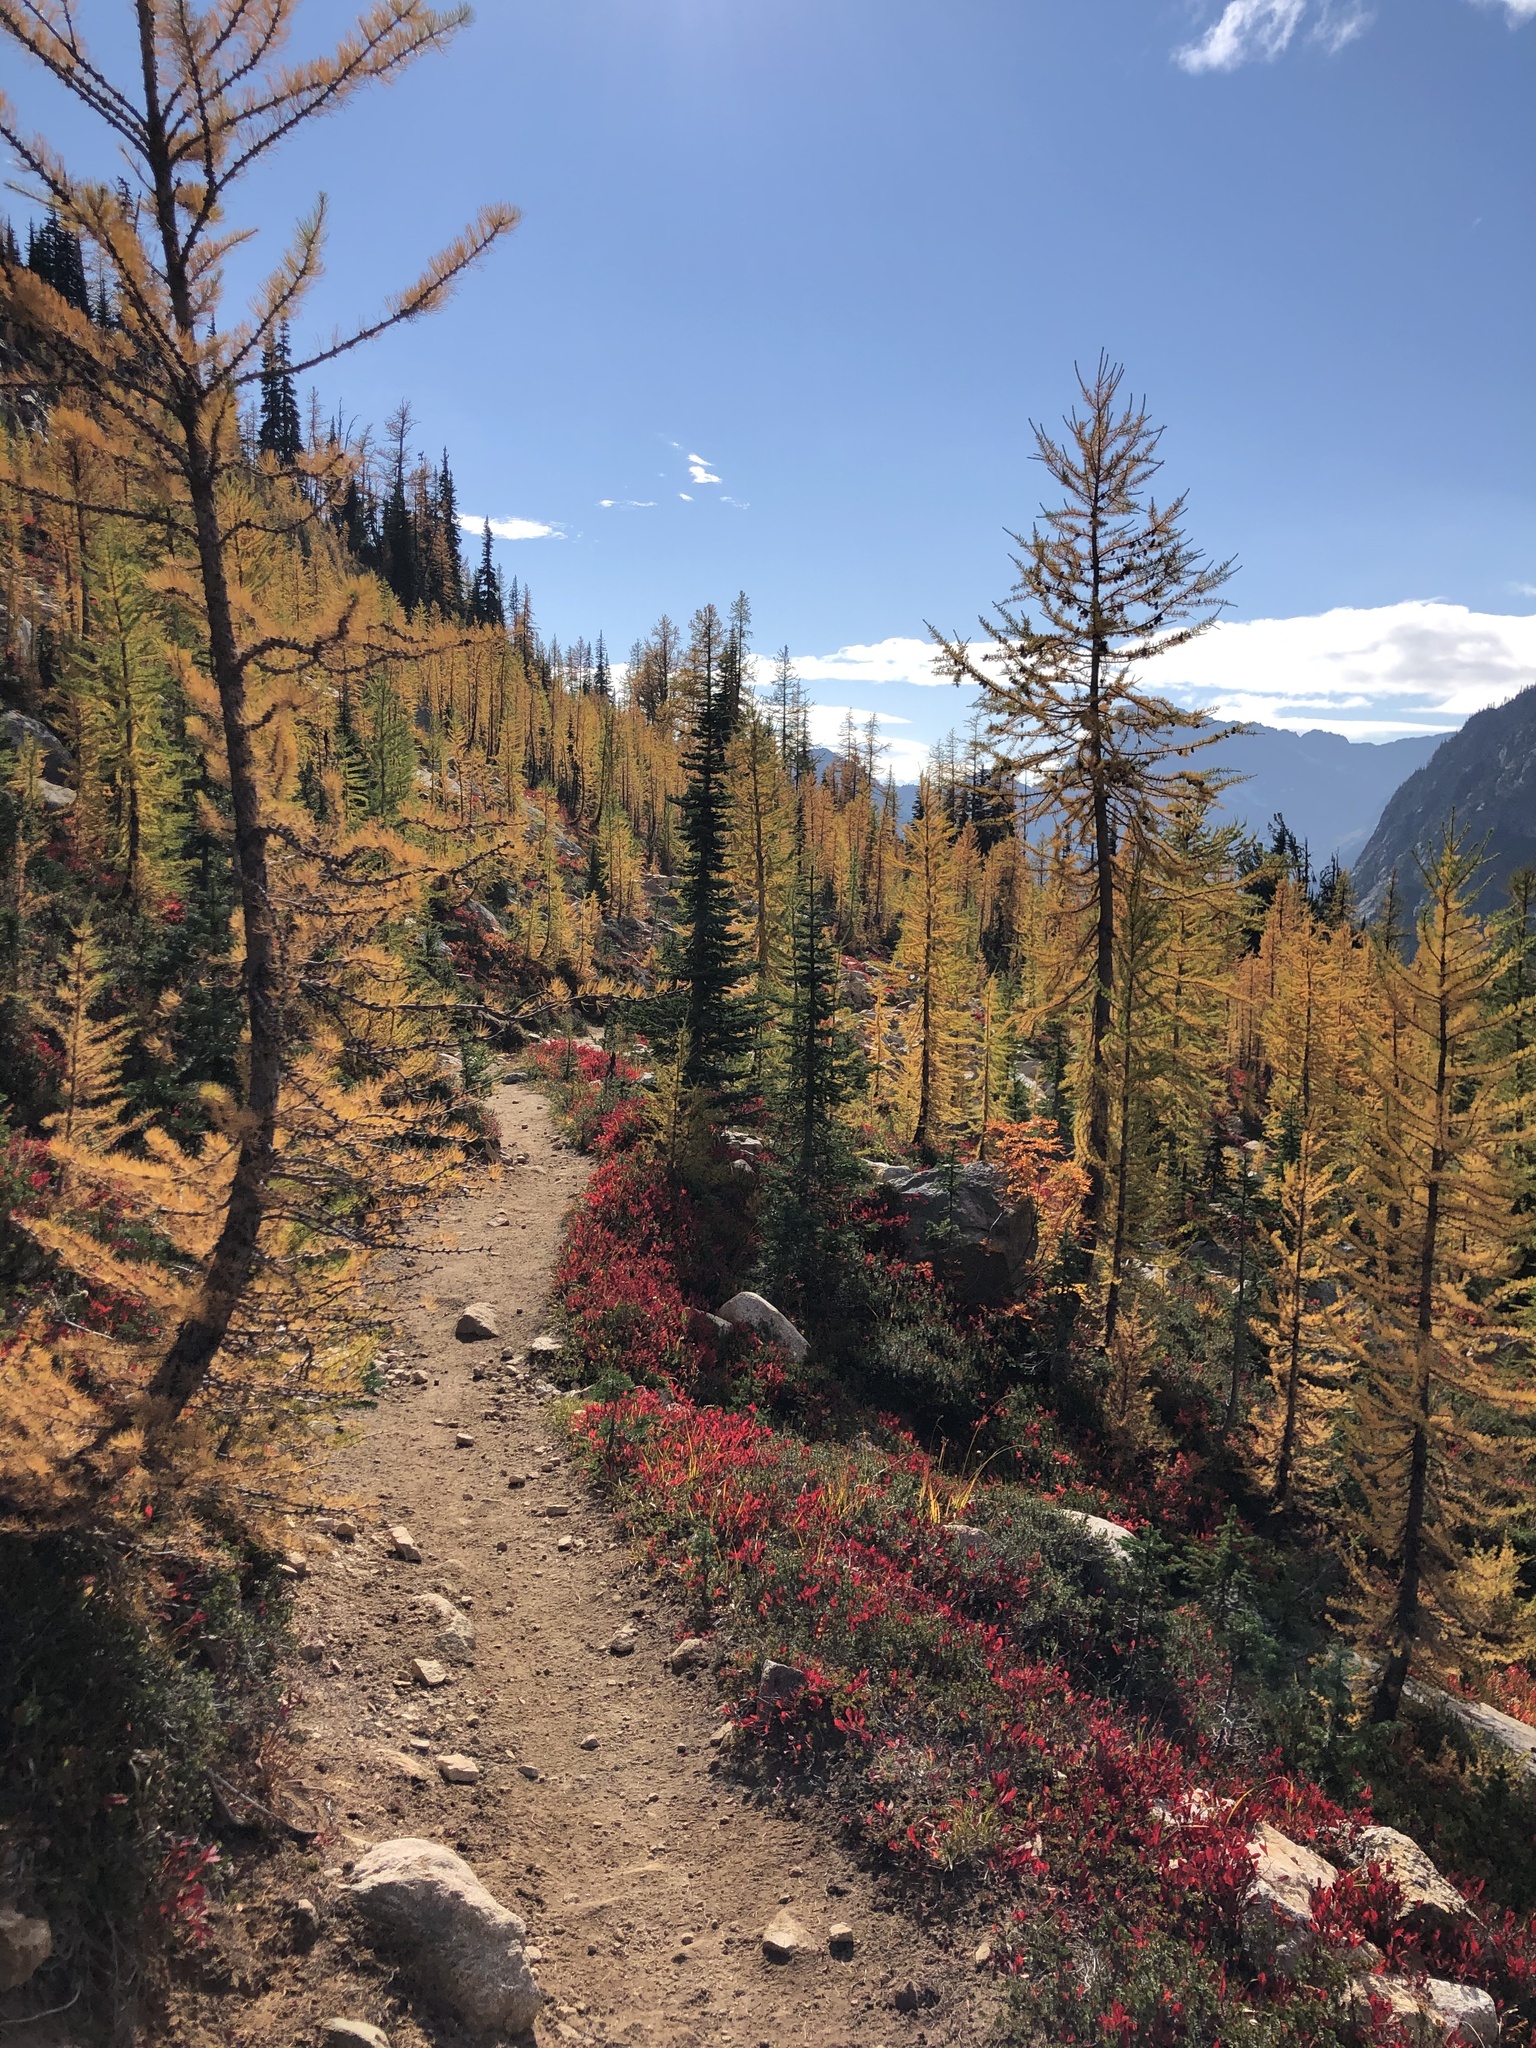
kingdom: Plantae
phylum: Tracheophyta
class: Pinopsida
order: Pinales
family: Pinaceae
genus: Larix
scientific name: Larix lyallii
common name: Alpine larch
